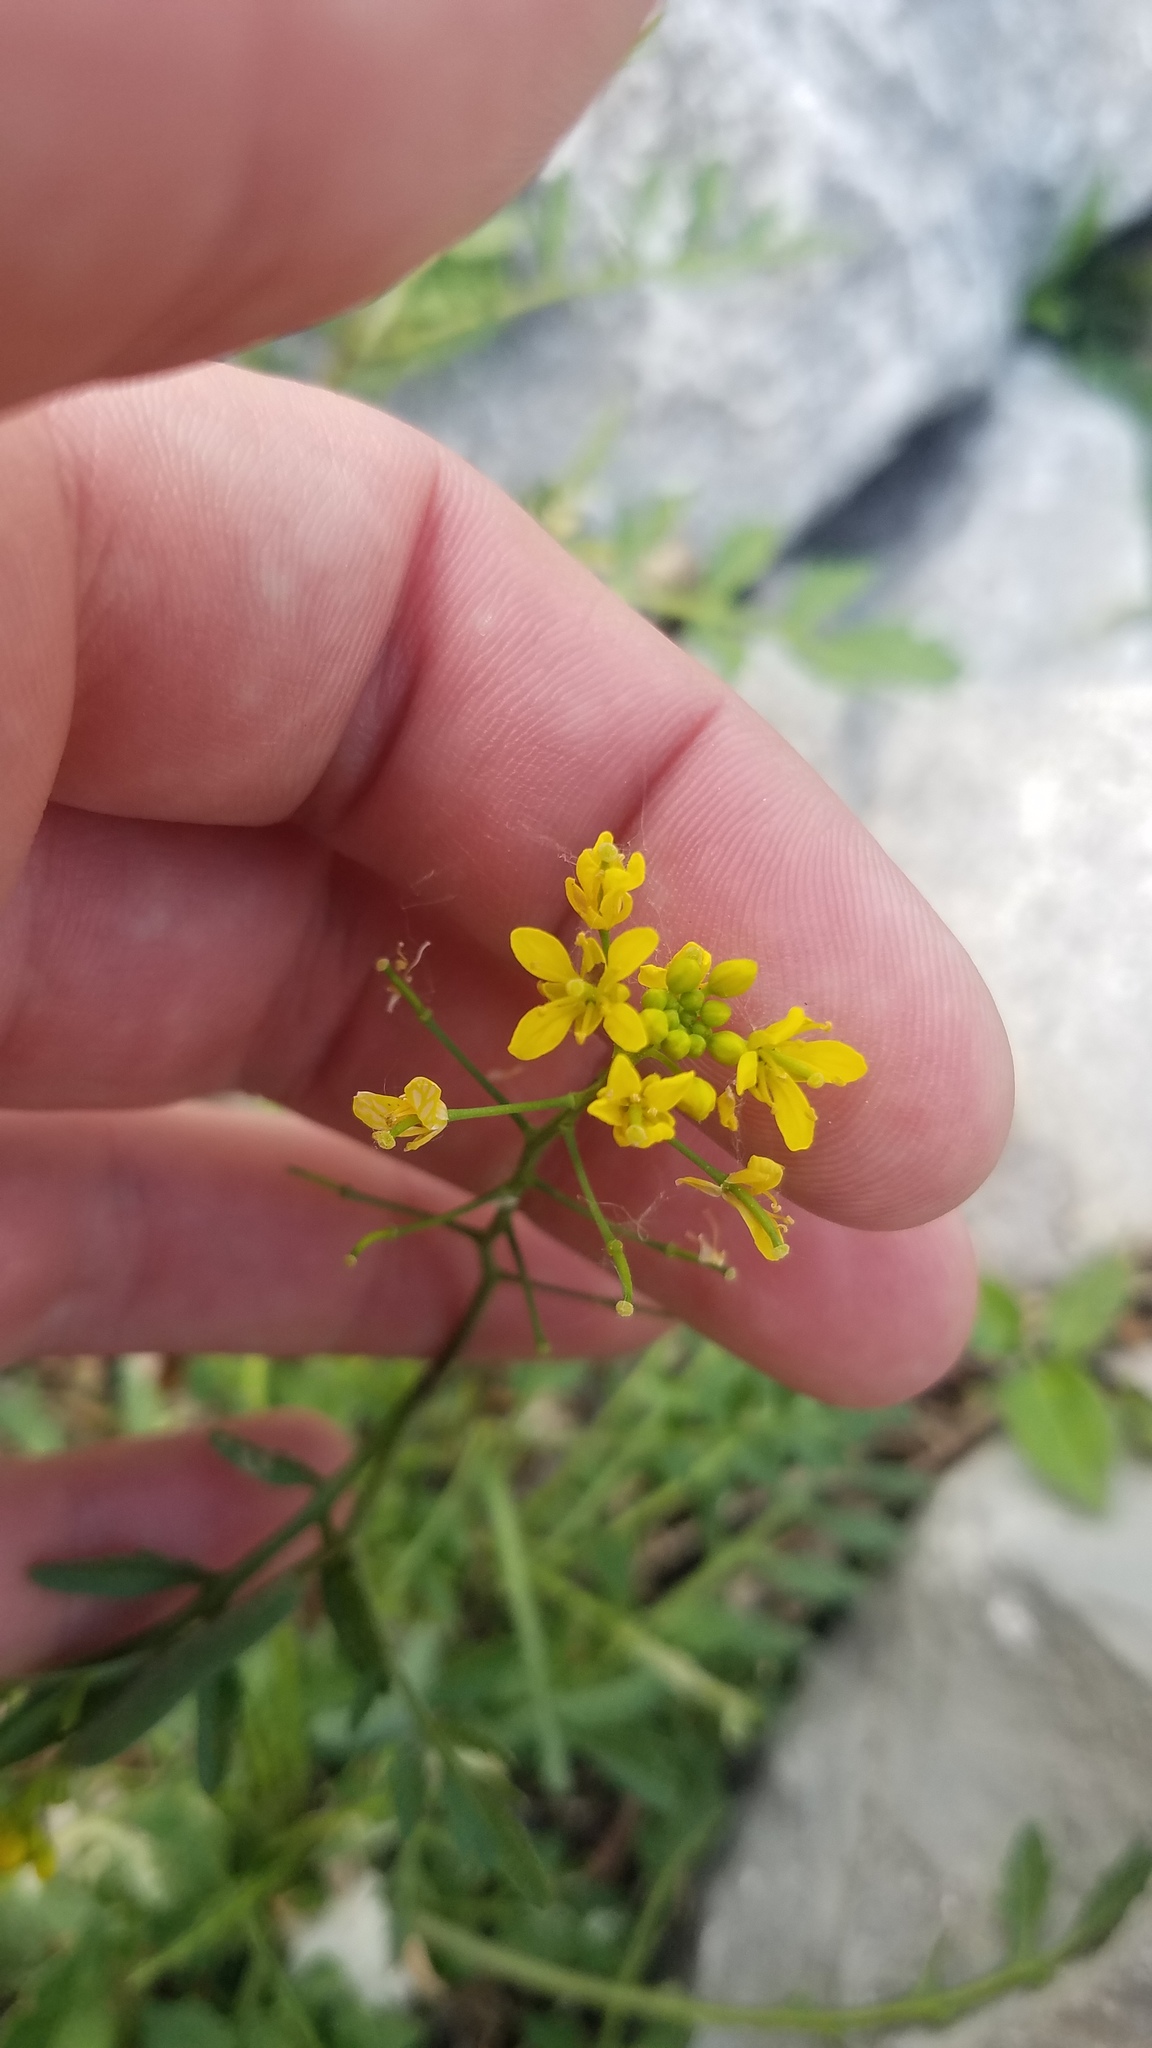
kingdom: Plantae
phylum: Tracheophyta
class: Magnoliopsida
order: Brassicales
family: Brassicaceae
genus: Rorippa
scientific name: Rorippa sylvestris
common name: Creeping yellowcress
